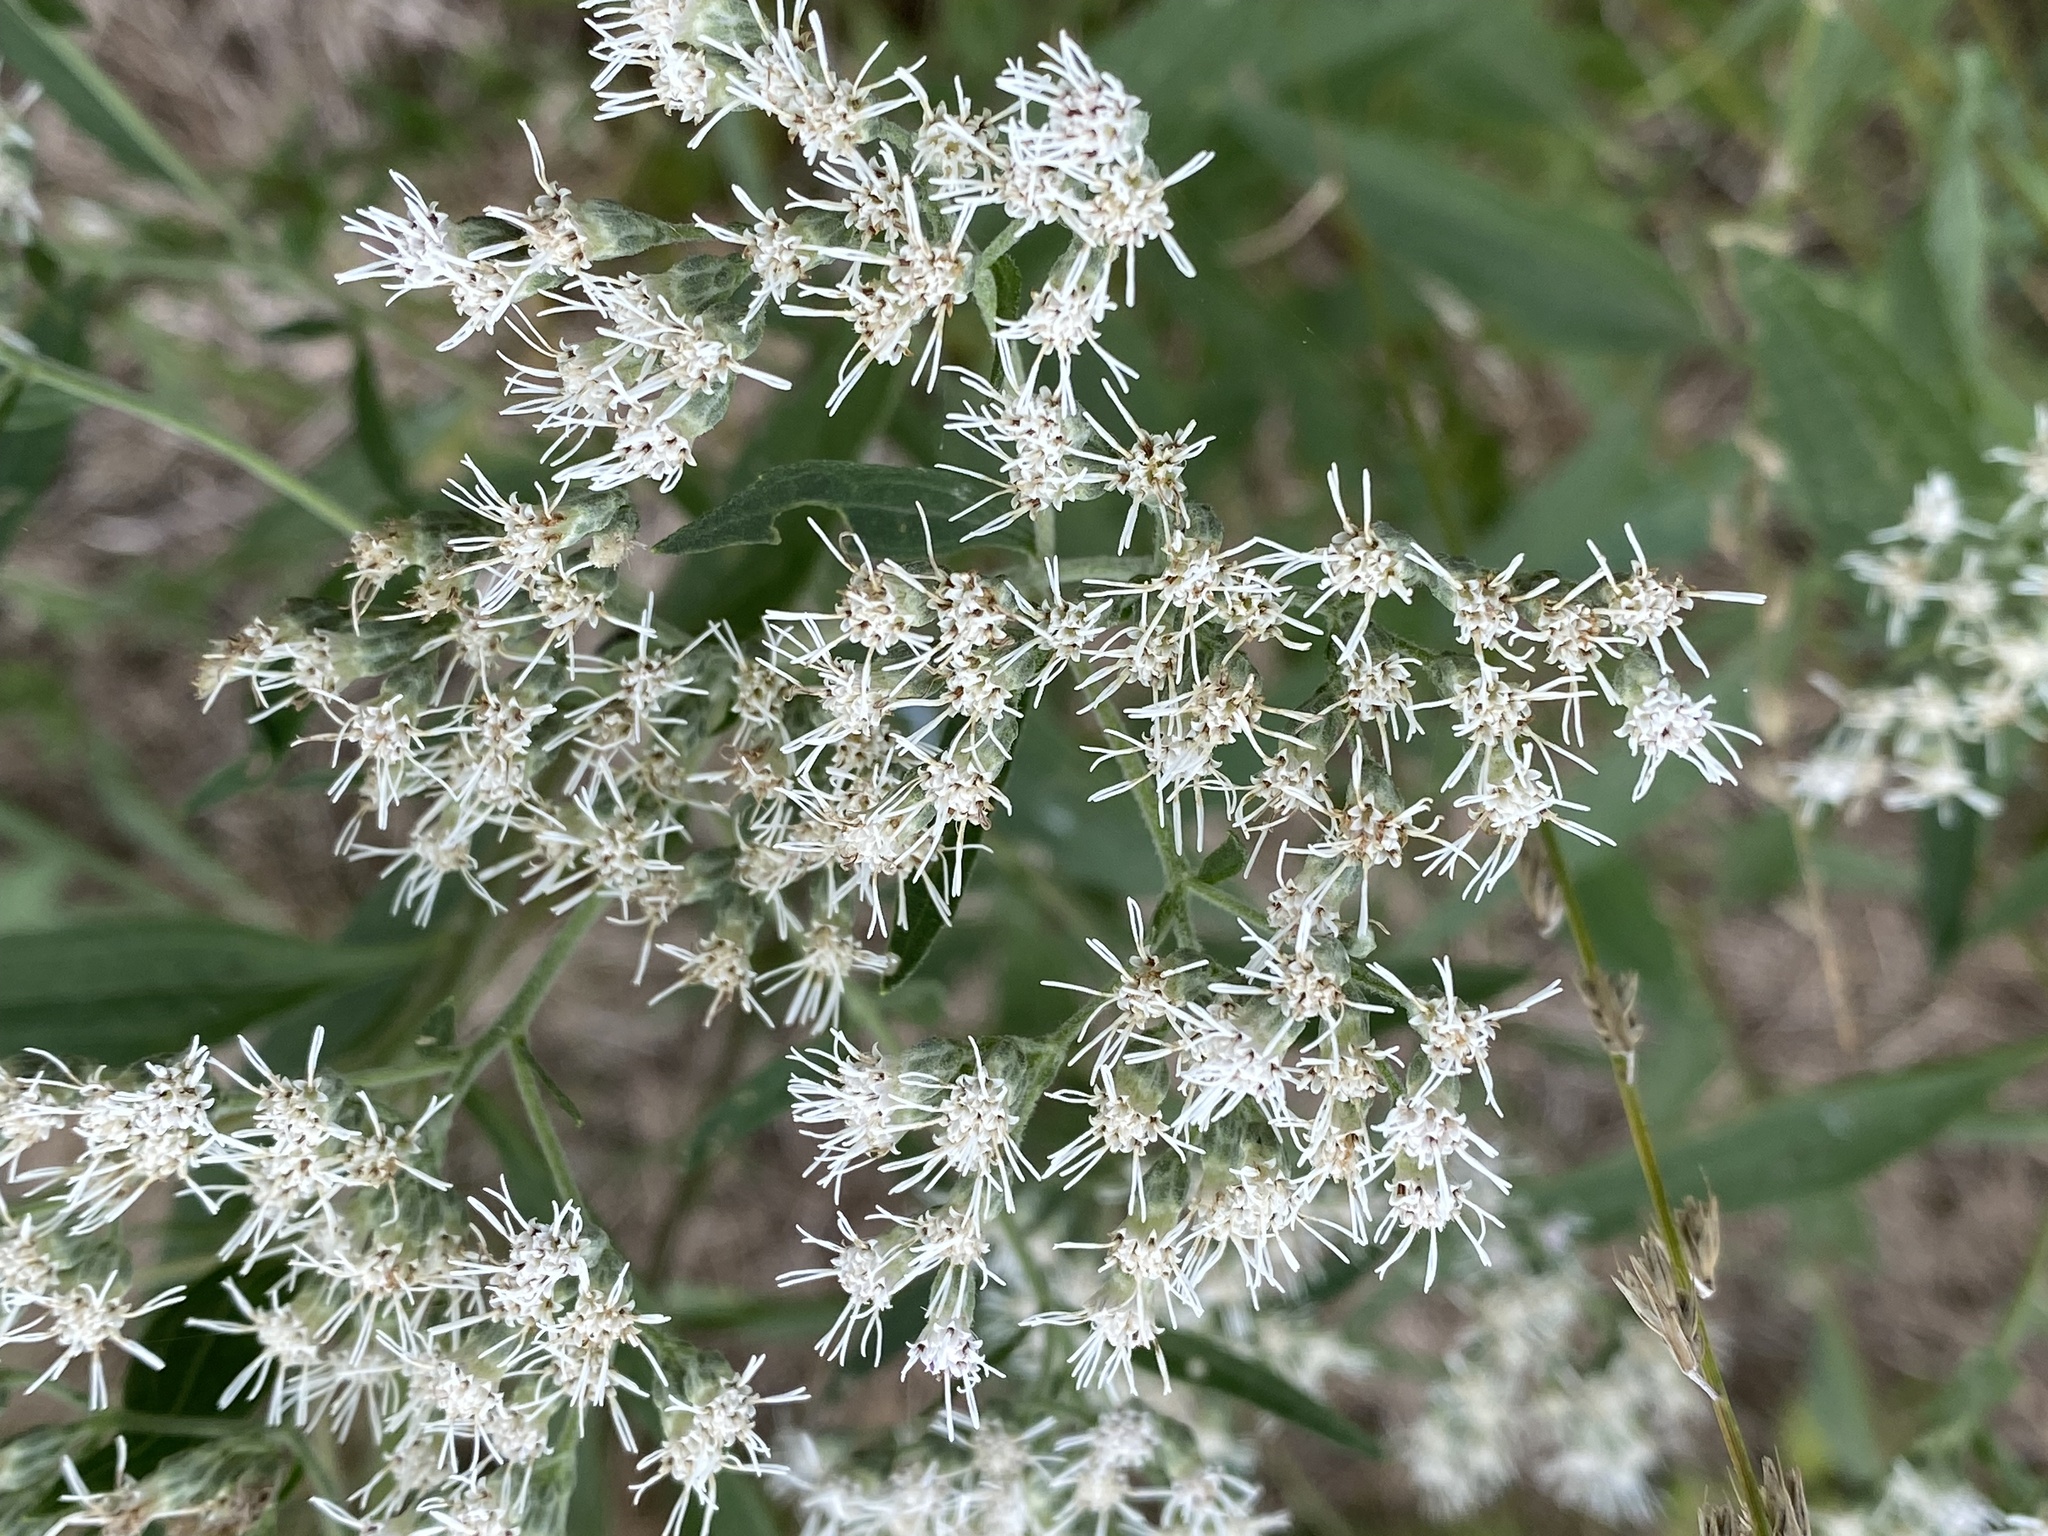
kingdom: Plantae
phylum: Tracheophyta
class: Magnoliopsida
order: Asterales
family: Asteraceae
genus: Eupatorium
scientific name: Eupatorium serotinum
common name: Late boneset
